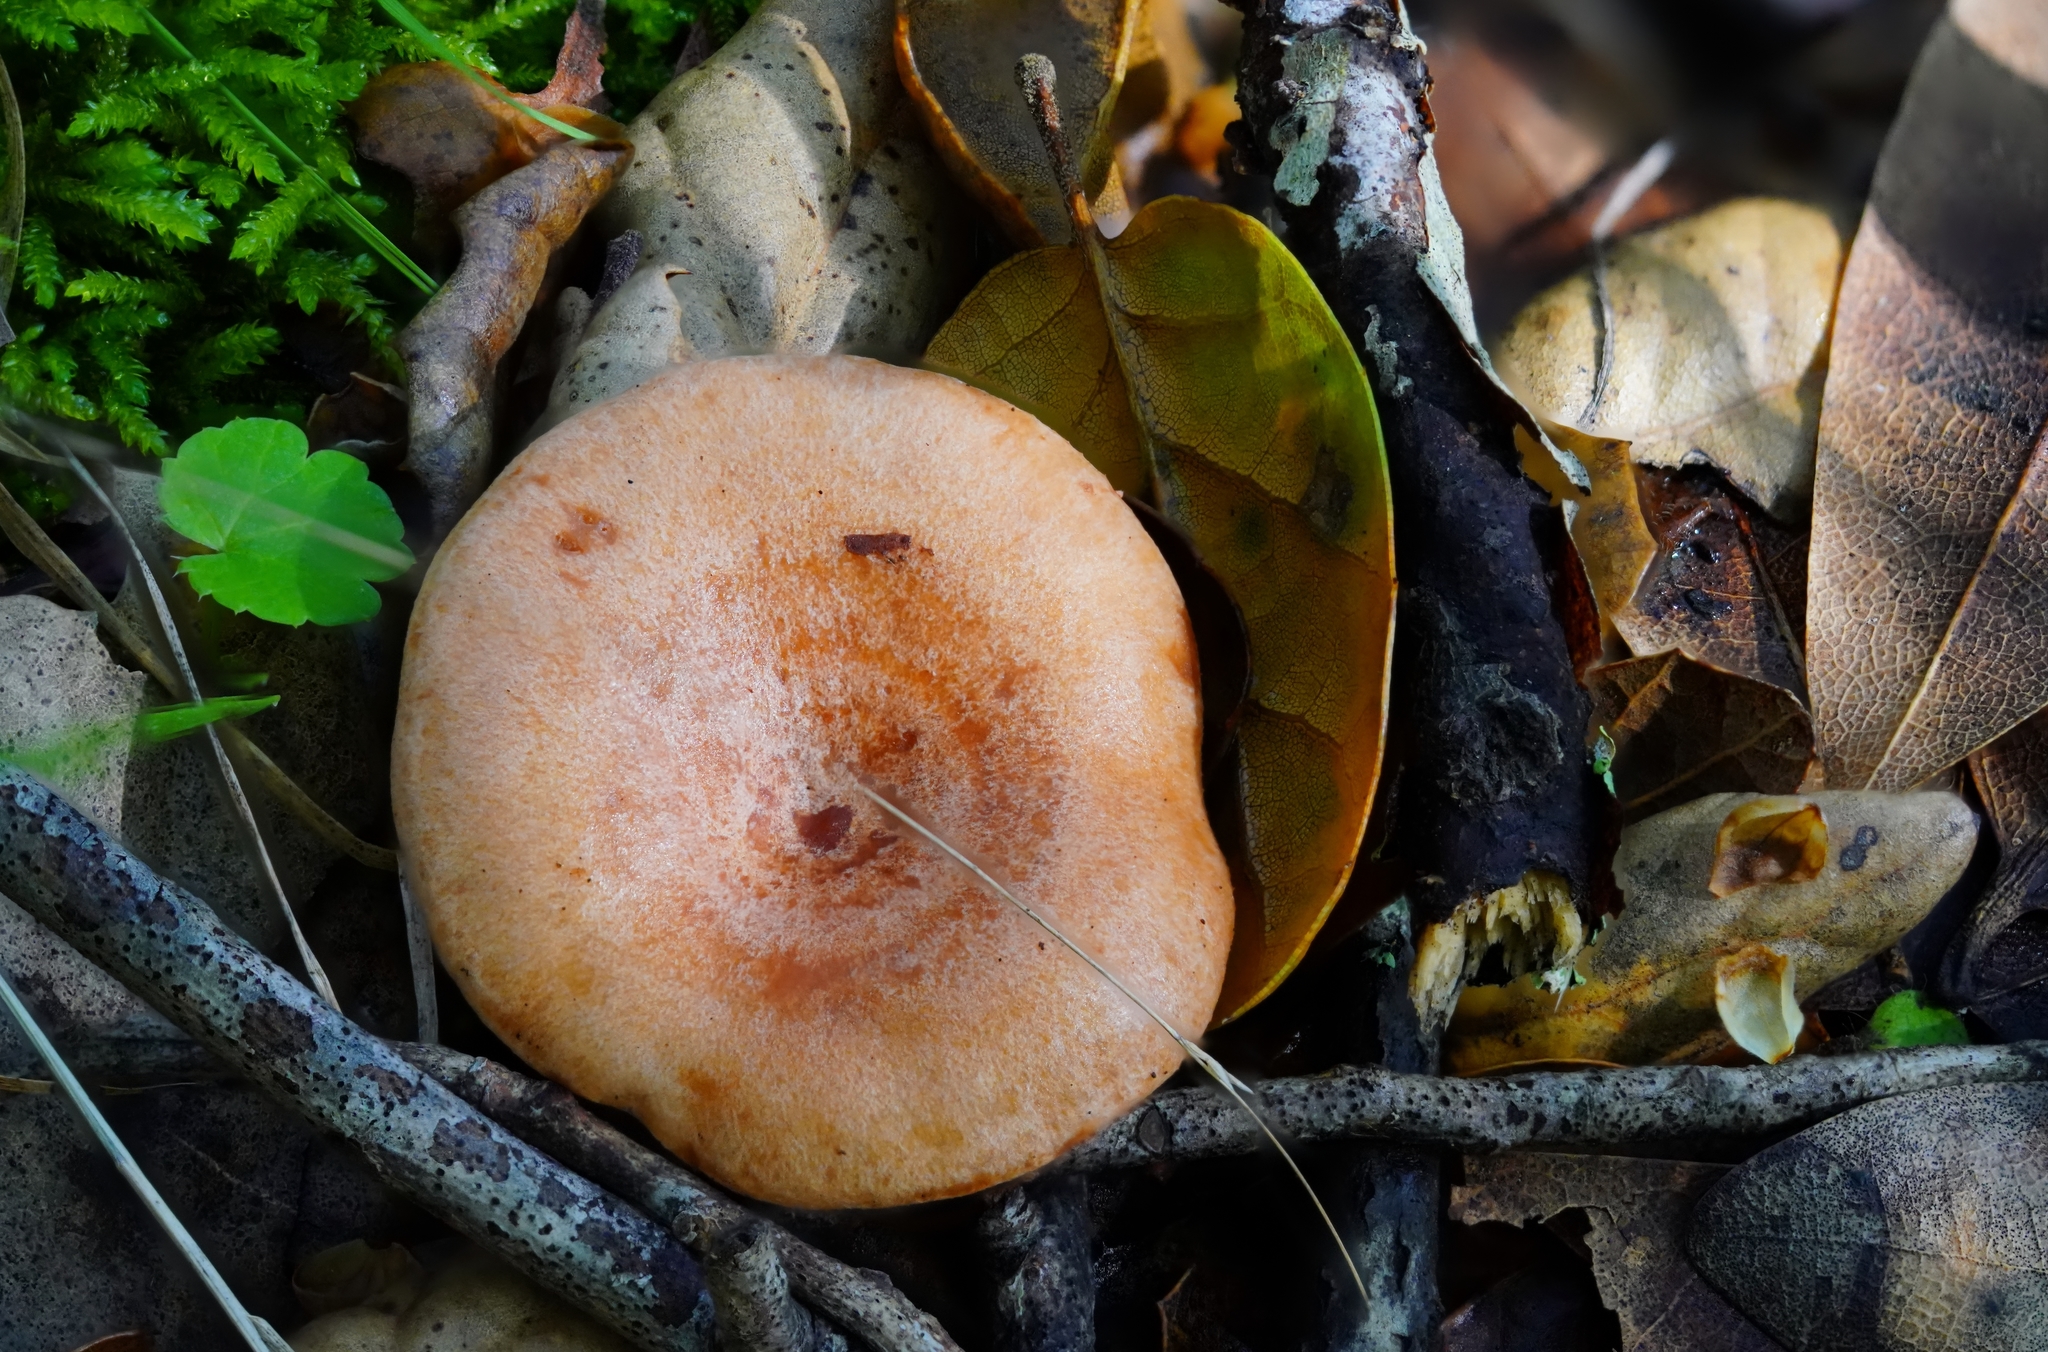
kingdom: Fungi
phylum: Basidiomycota
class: Agaricomycetes
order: Russulales
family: Russulaceae
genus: Lactarius
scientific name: Lactarius xanthogalactus
